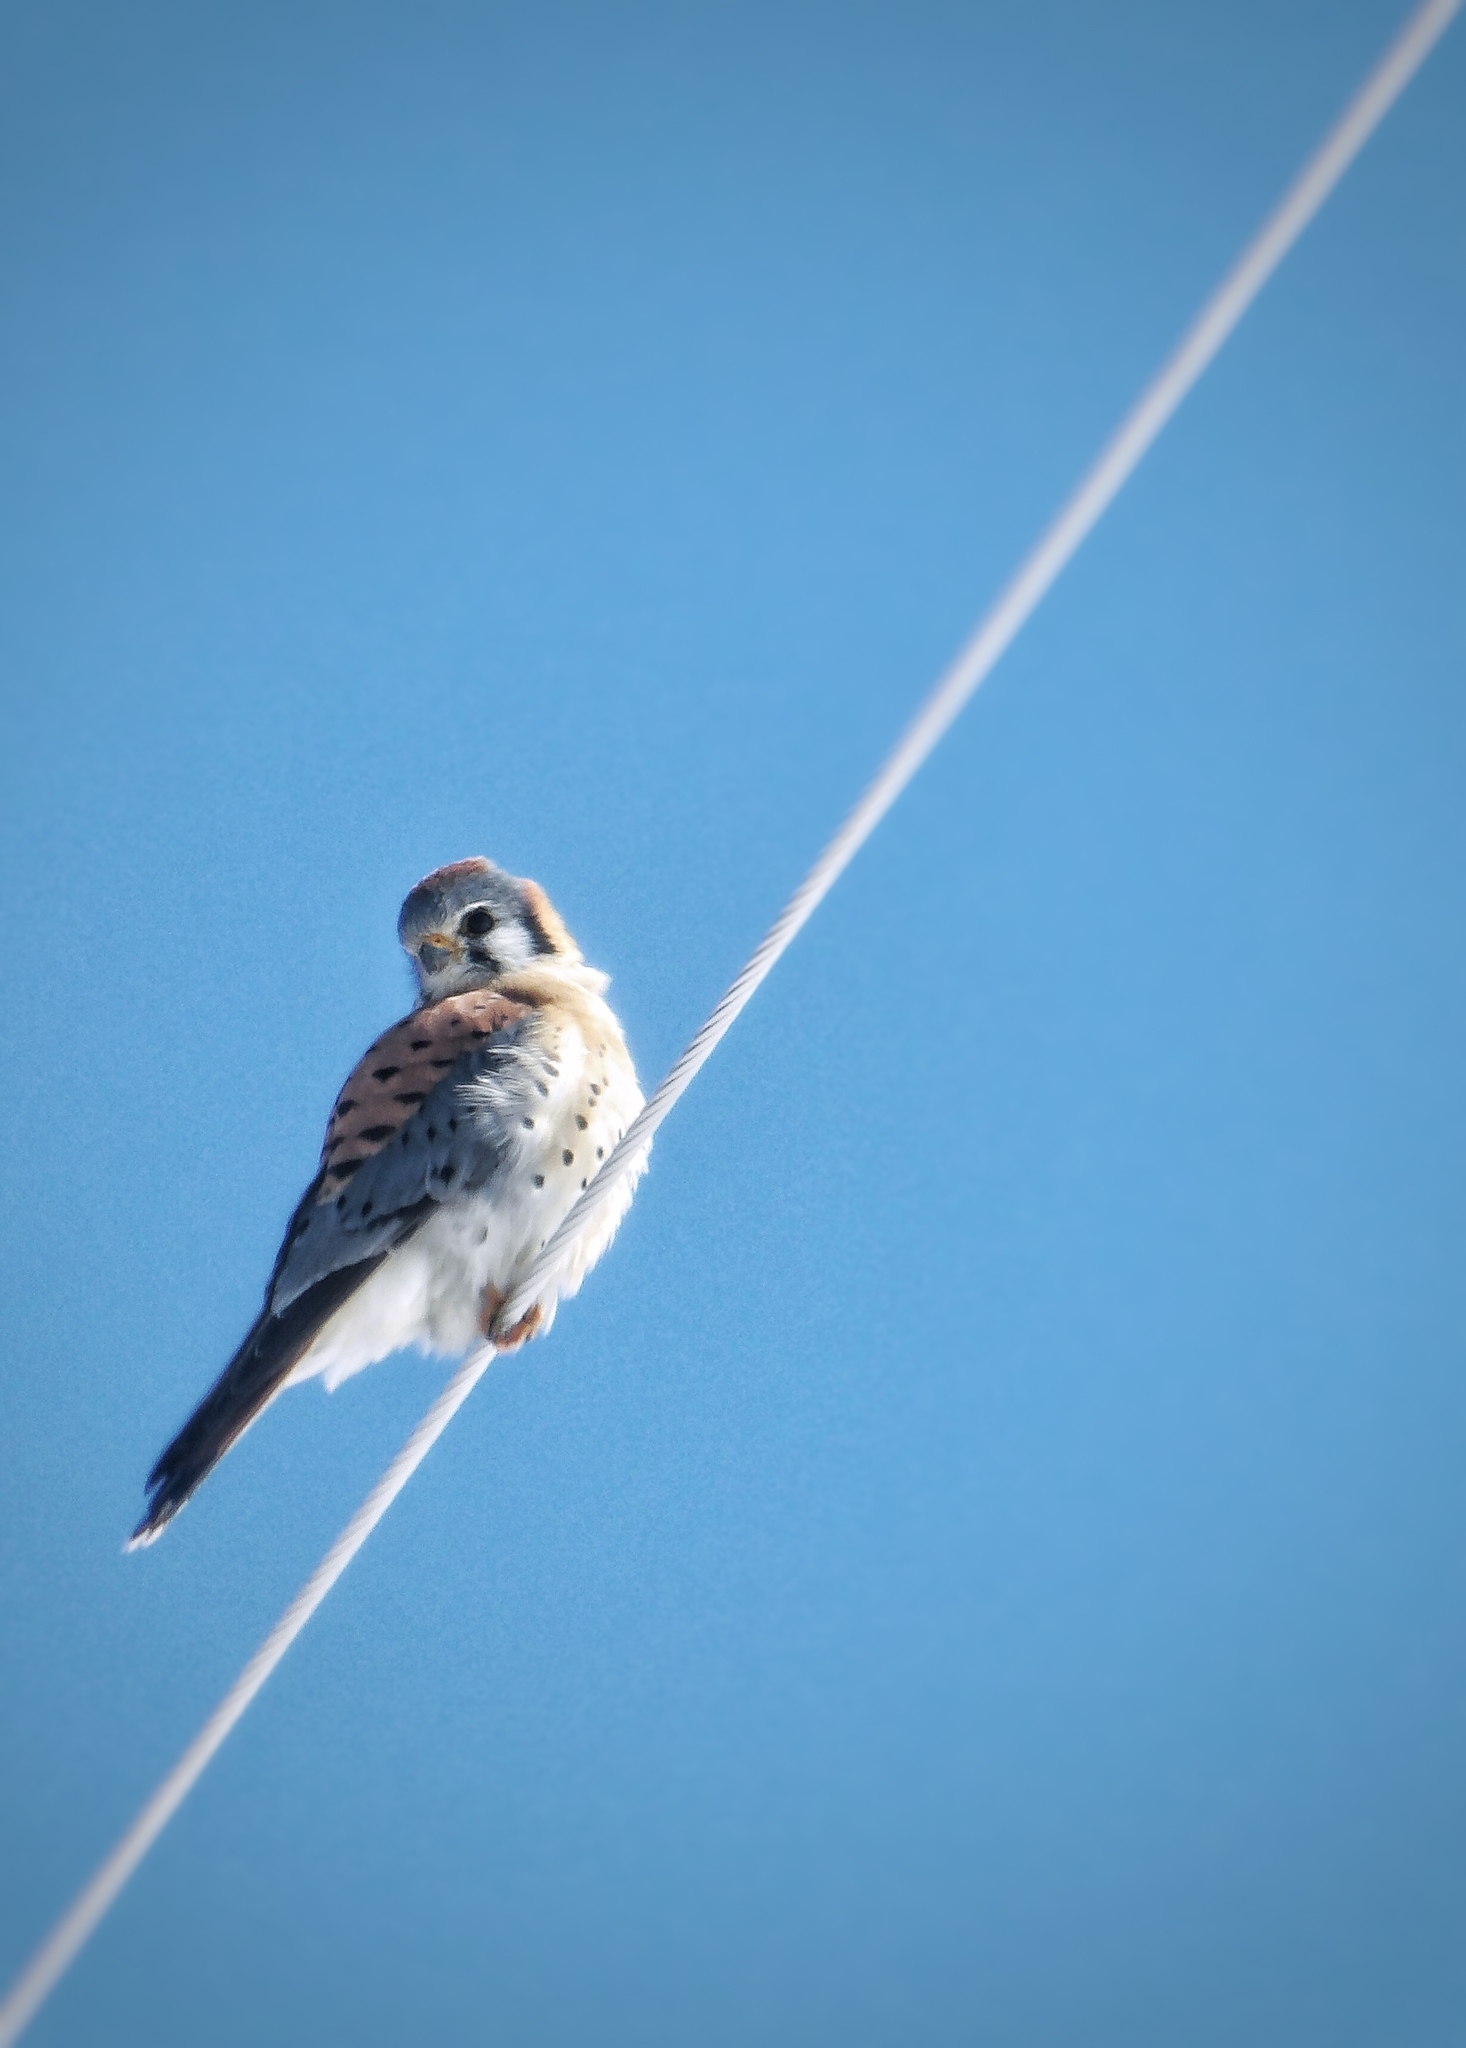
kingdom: Animalia
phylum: Chordata
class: Aves
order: Falconiformes
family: Falconidae
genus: Falco
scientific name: Falco sparverius
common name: American kestrel
